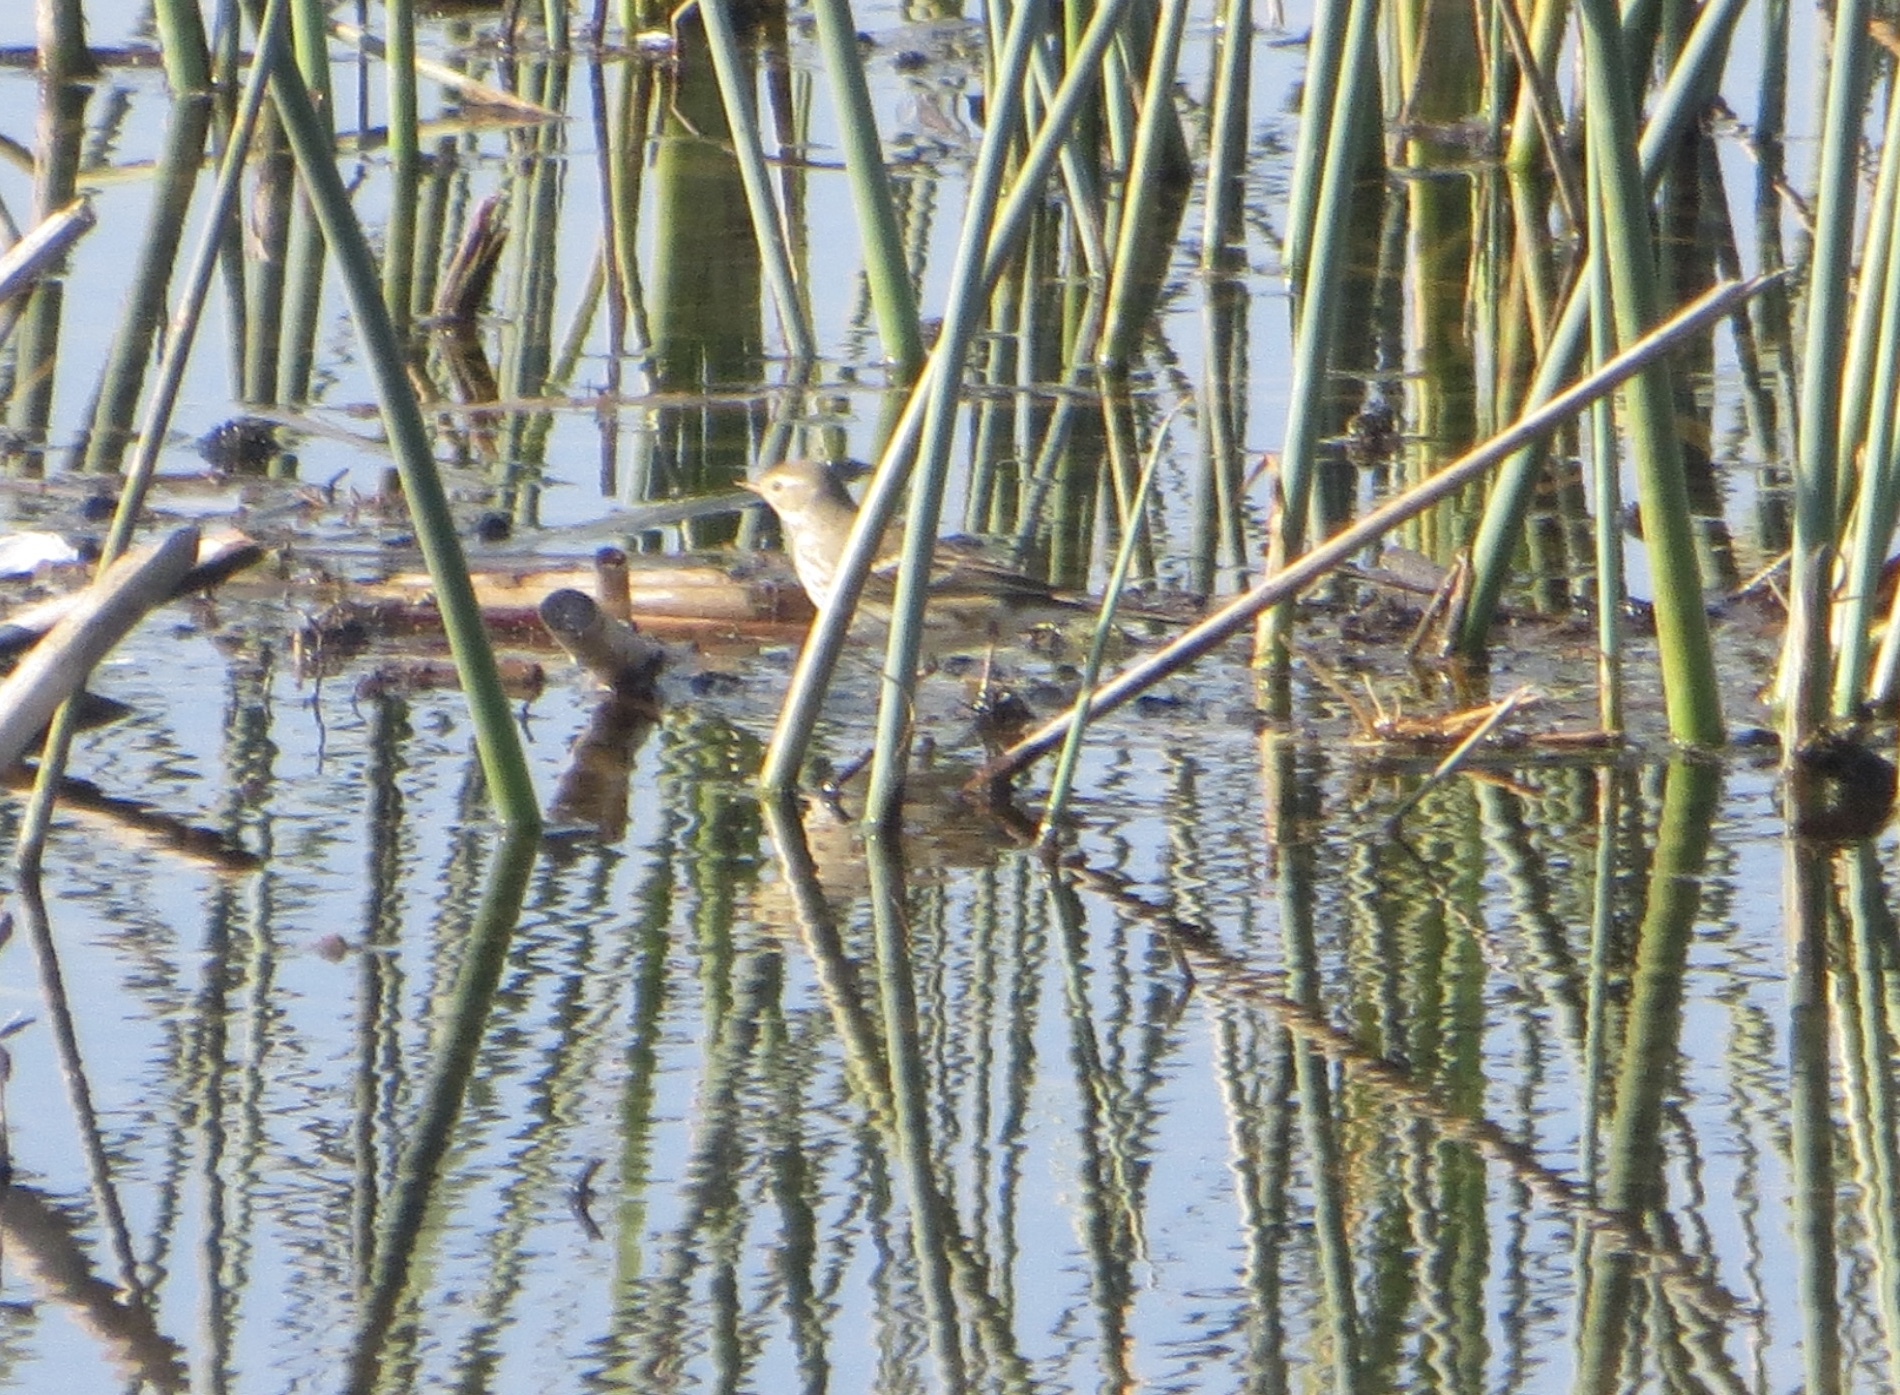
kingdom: Animalia
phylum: Chordata
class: Aves
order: Passeriformes
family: Motacillidae
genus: Anthus
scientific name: Anthus rubescens
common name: Buff-bellied pipit
